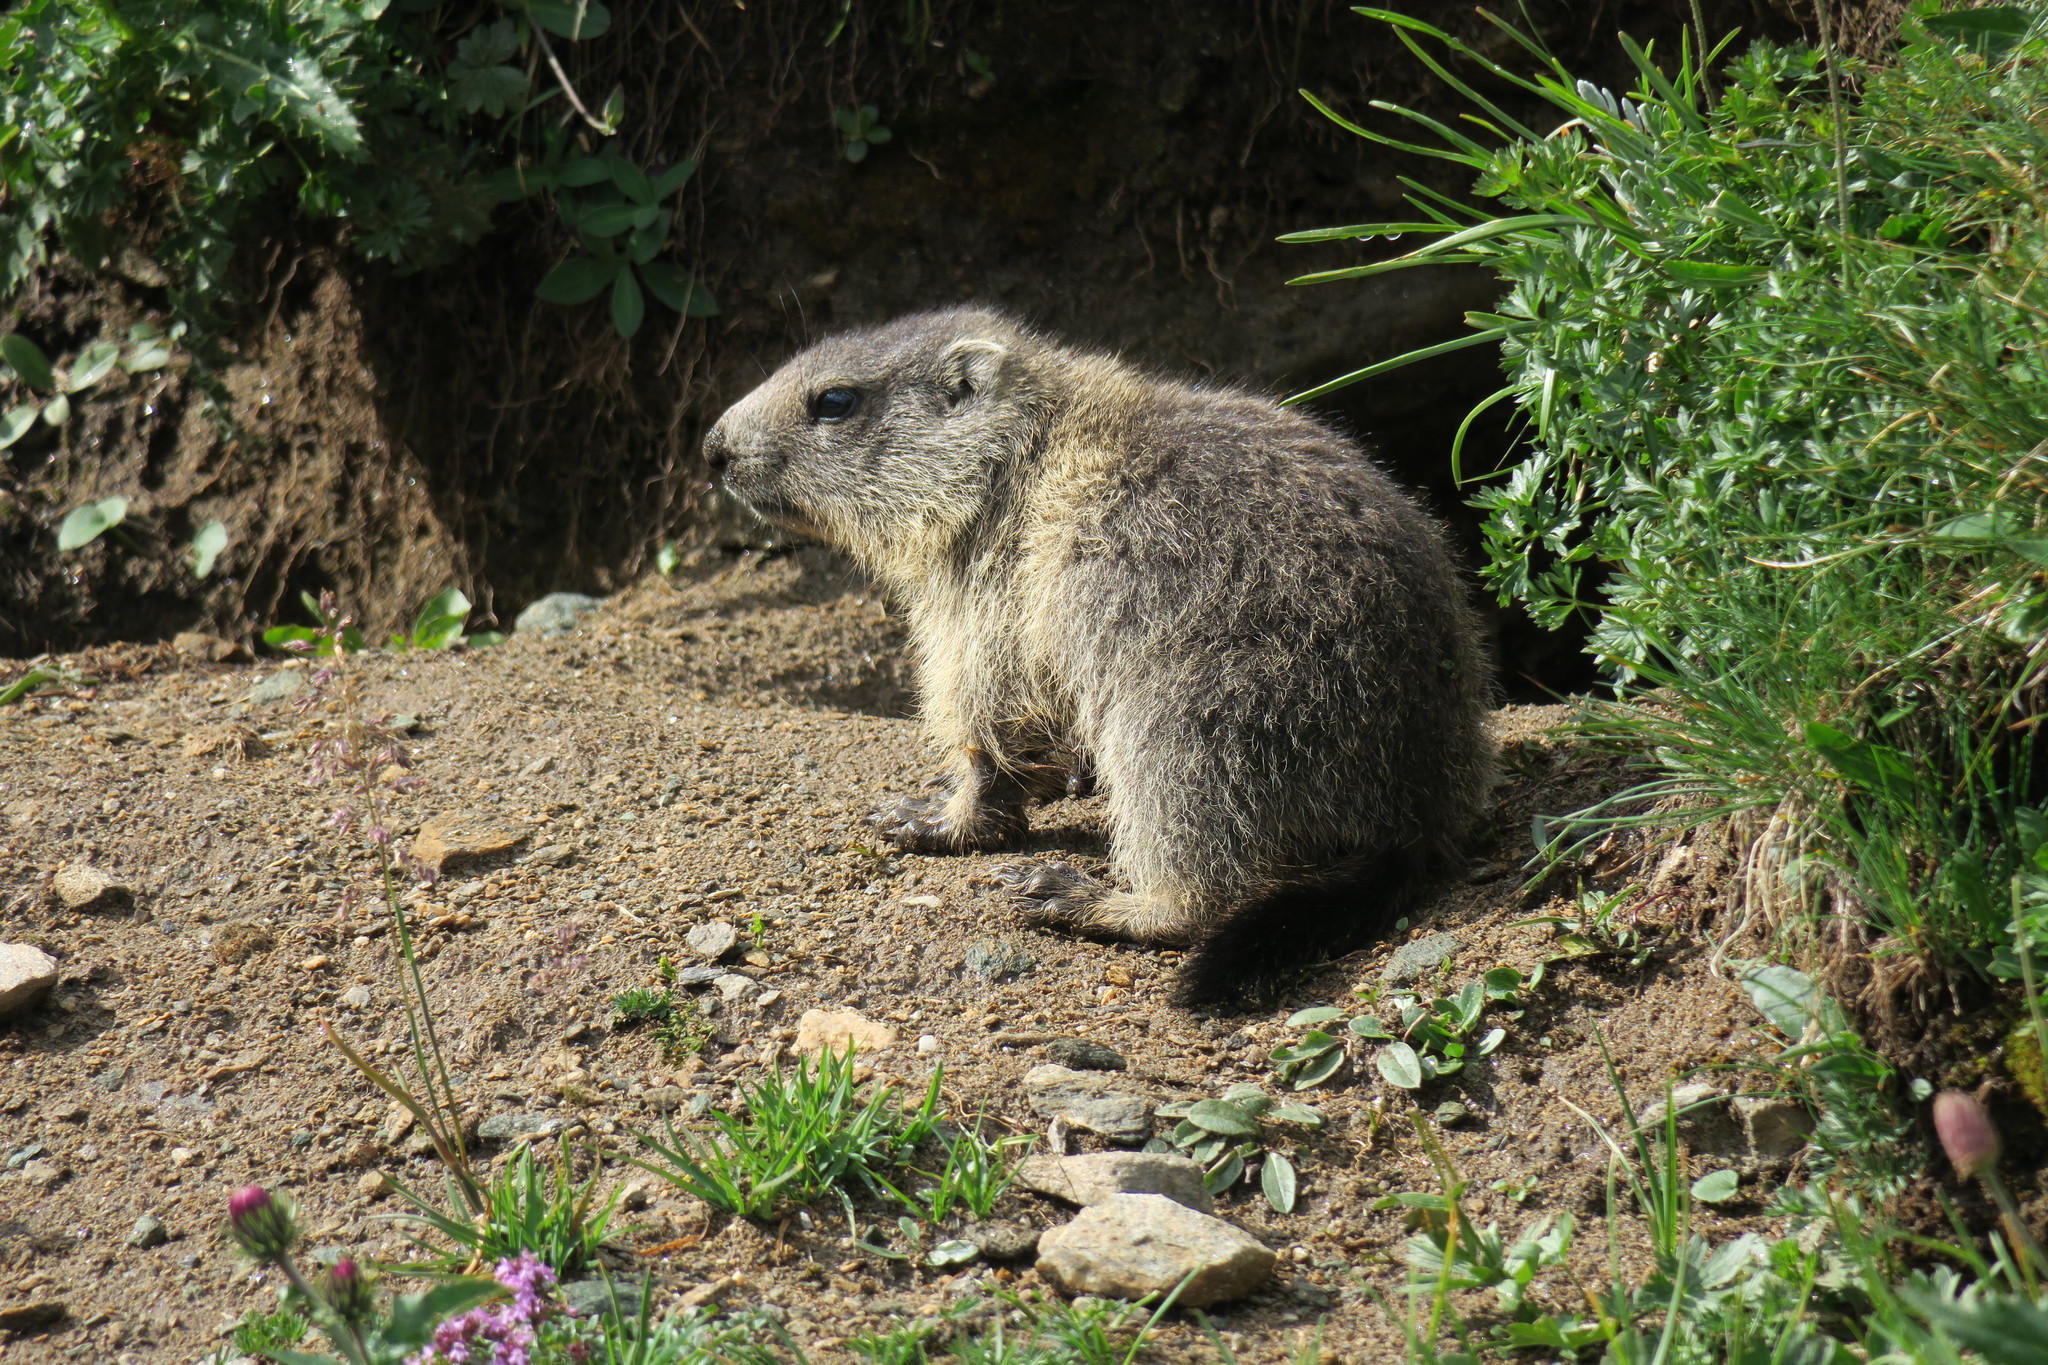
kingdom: Animalia
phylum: Chordata
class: Mammalia
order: Rodentia
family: Sciuridae
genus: Marmota
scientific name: Marmota marmota
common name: Alpine marmot
